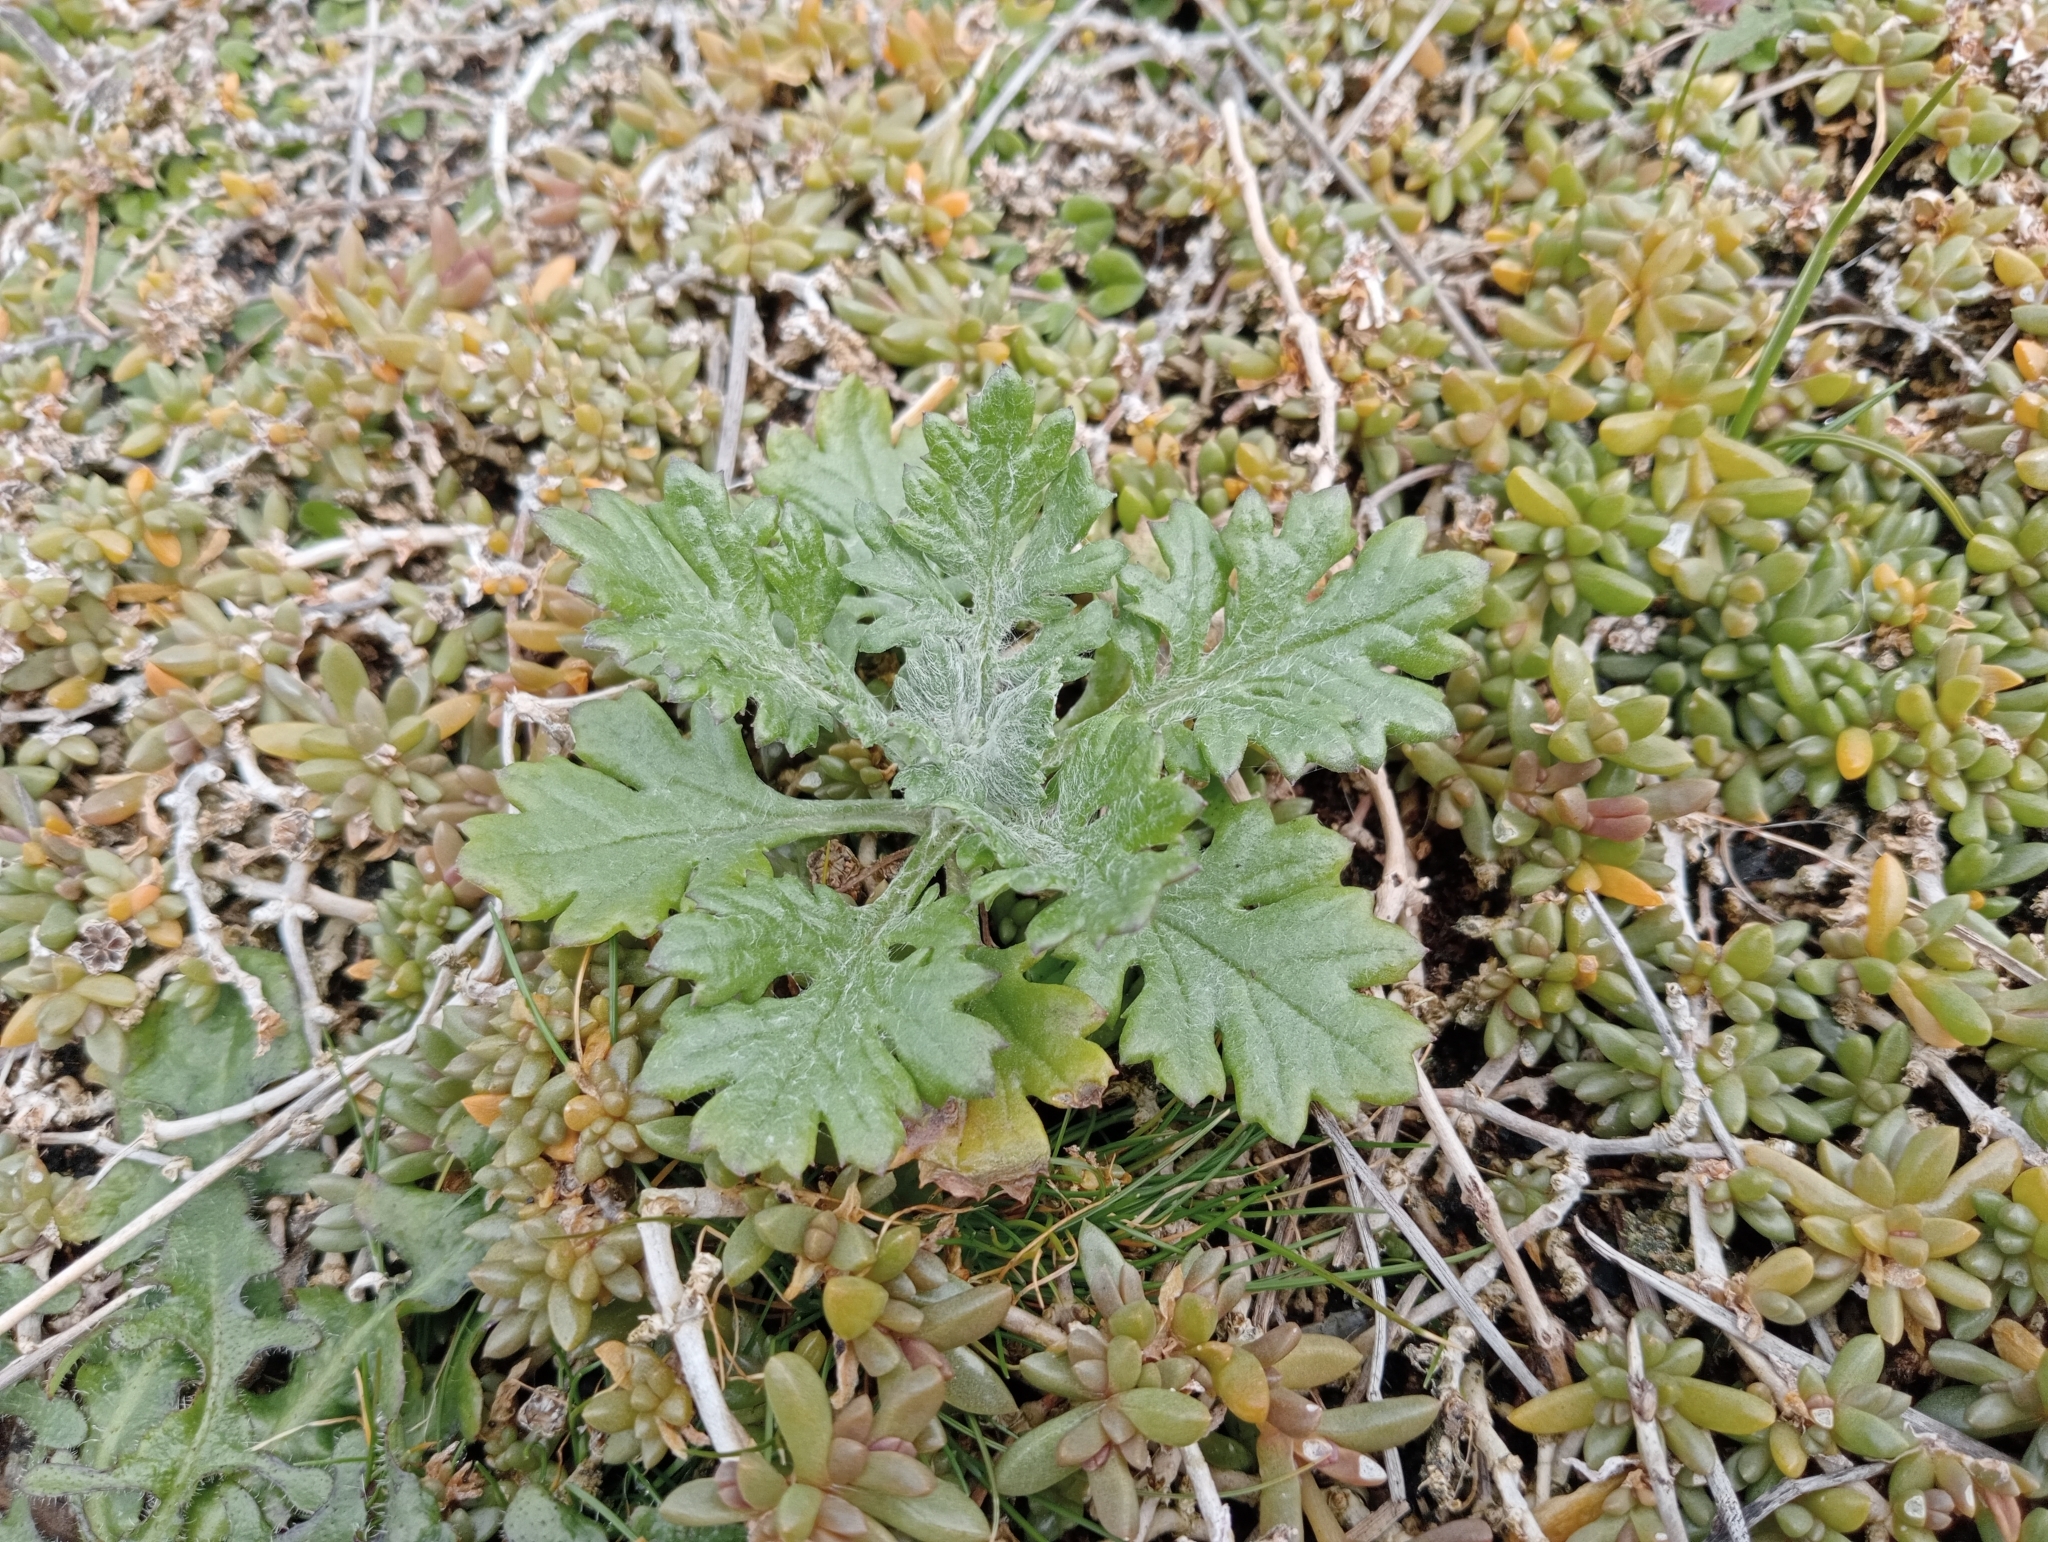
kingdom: Plantae
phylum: Tracheophyta
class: Magnoliopsida
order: Asterales
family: Asteraceae
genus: Senecio
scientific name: Senecio radiolatus
